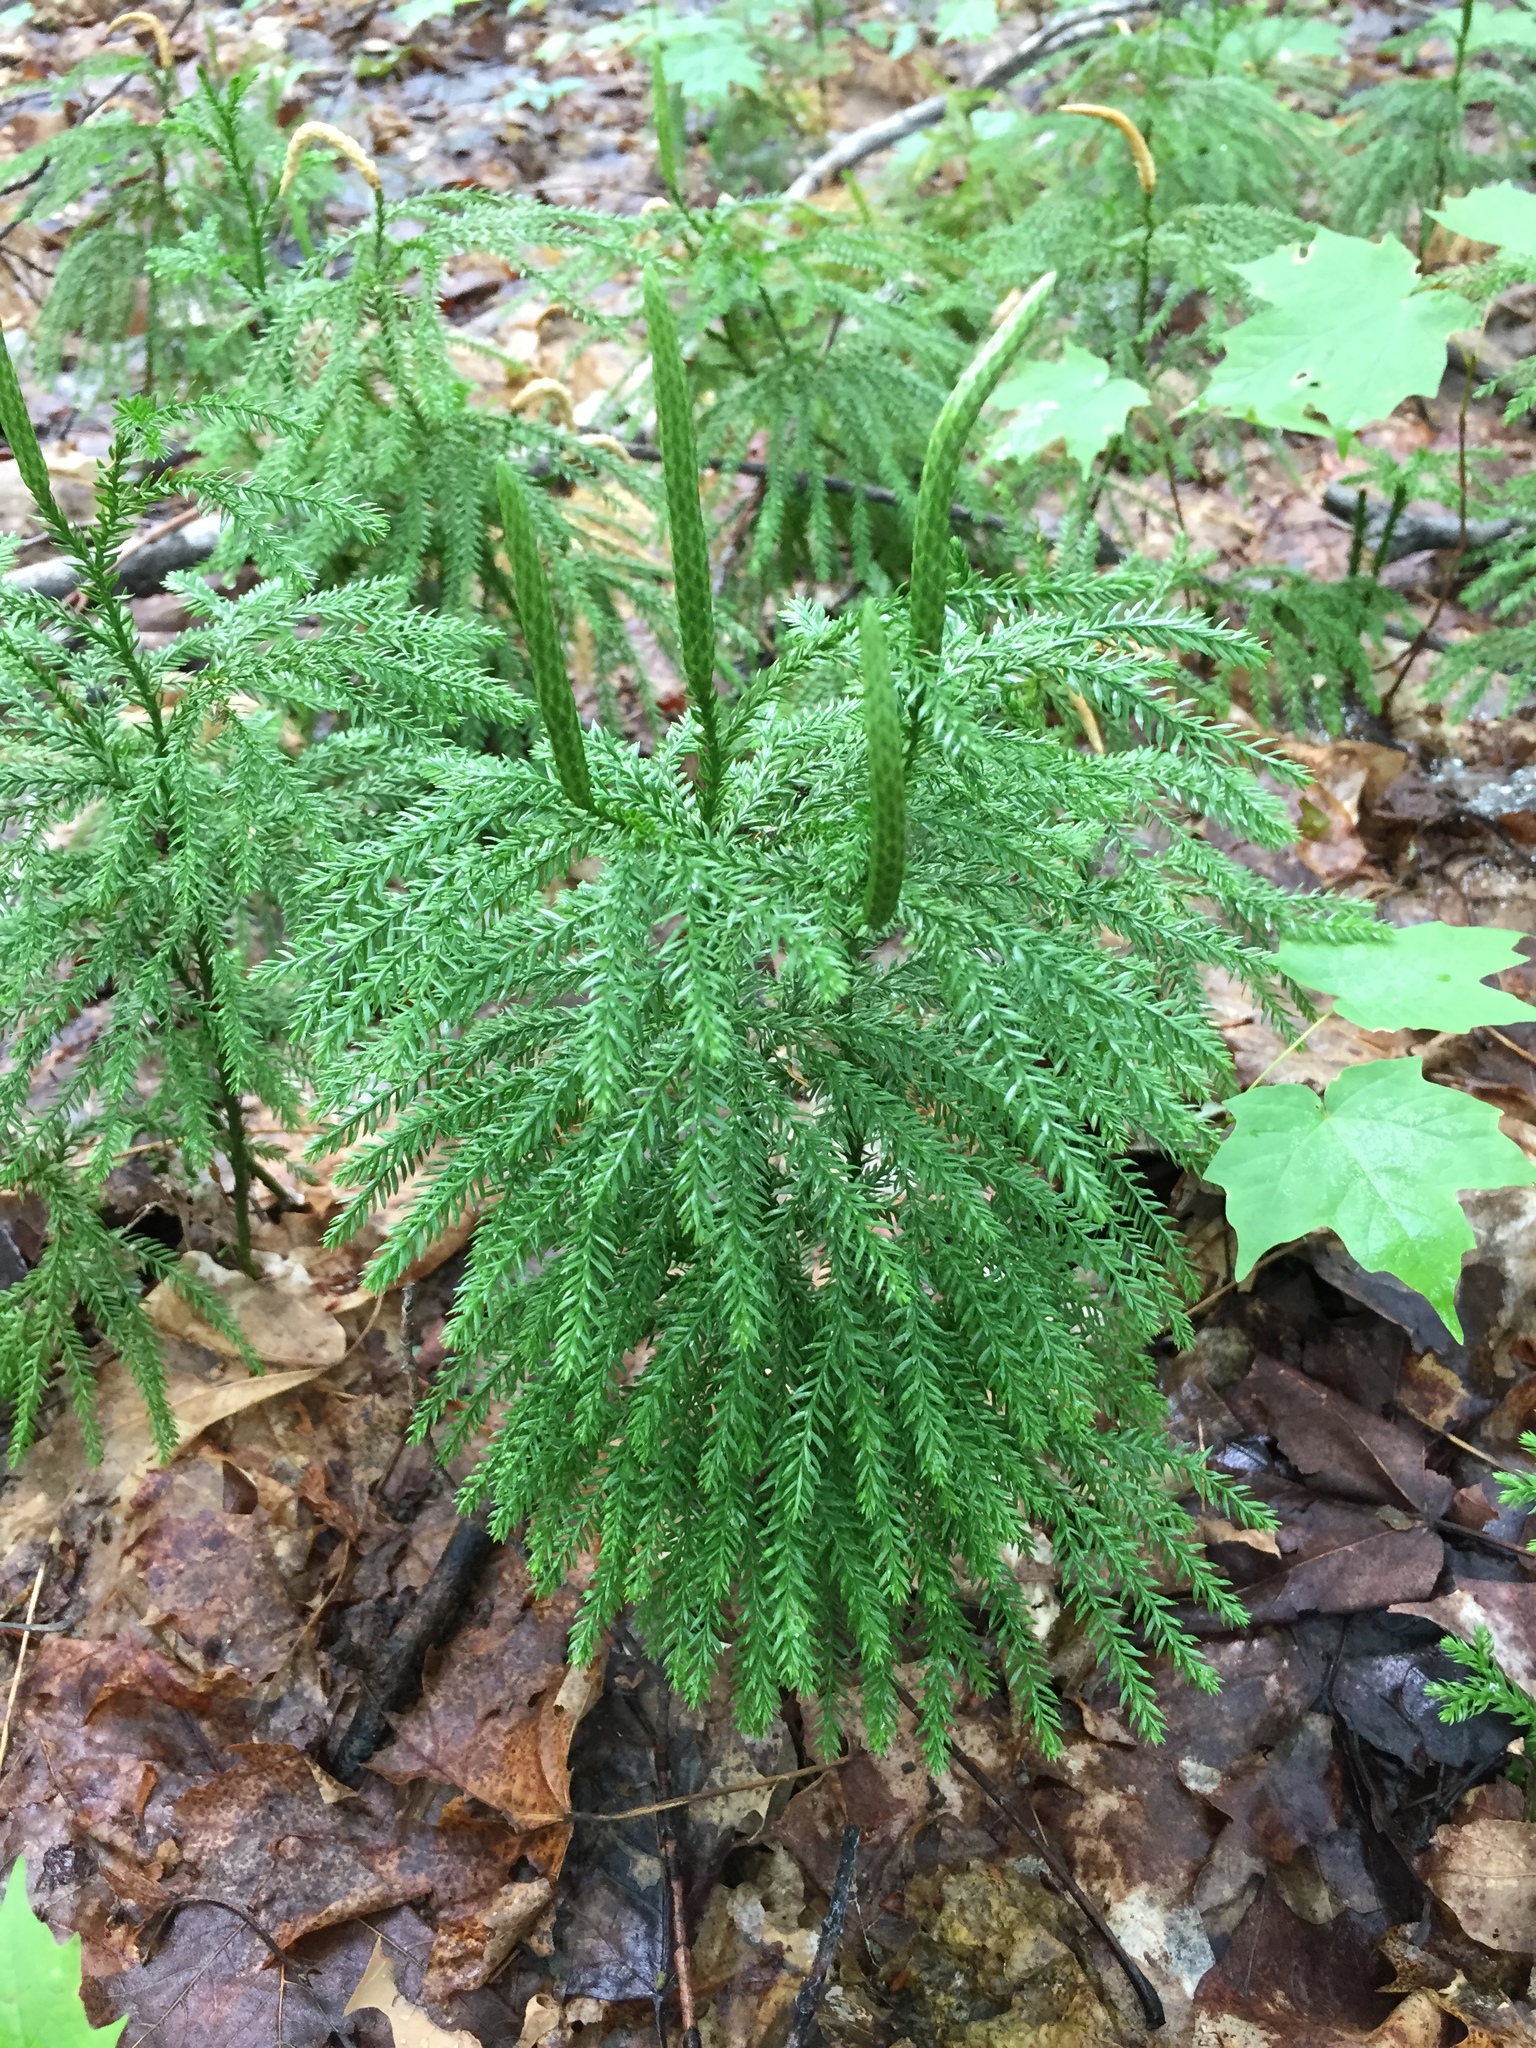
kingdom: Plantae
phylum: Tracheophyta
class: Lycopodiopsida
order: Lycopodiales
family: Lycopodiaceae
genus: Dendrolycopodium
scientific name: Dendrolycopodium
